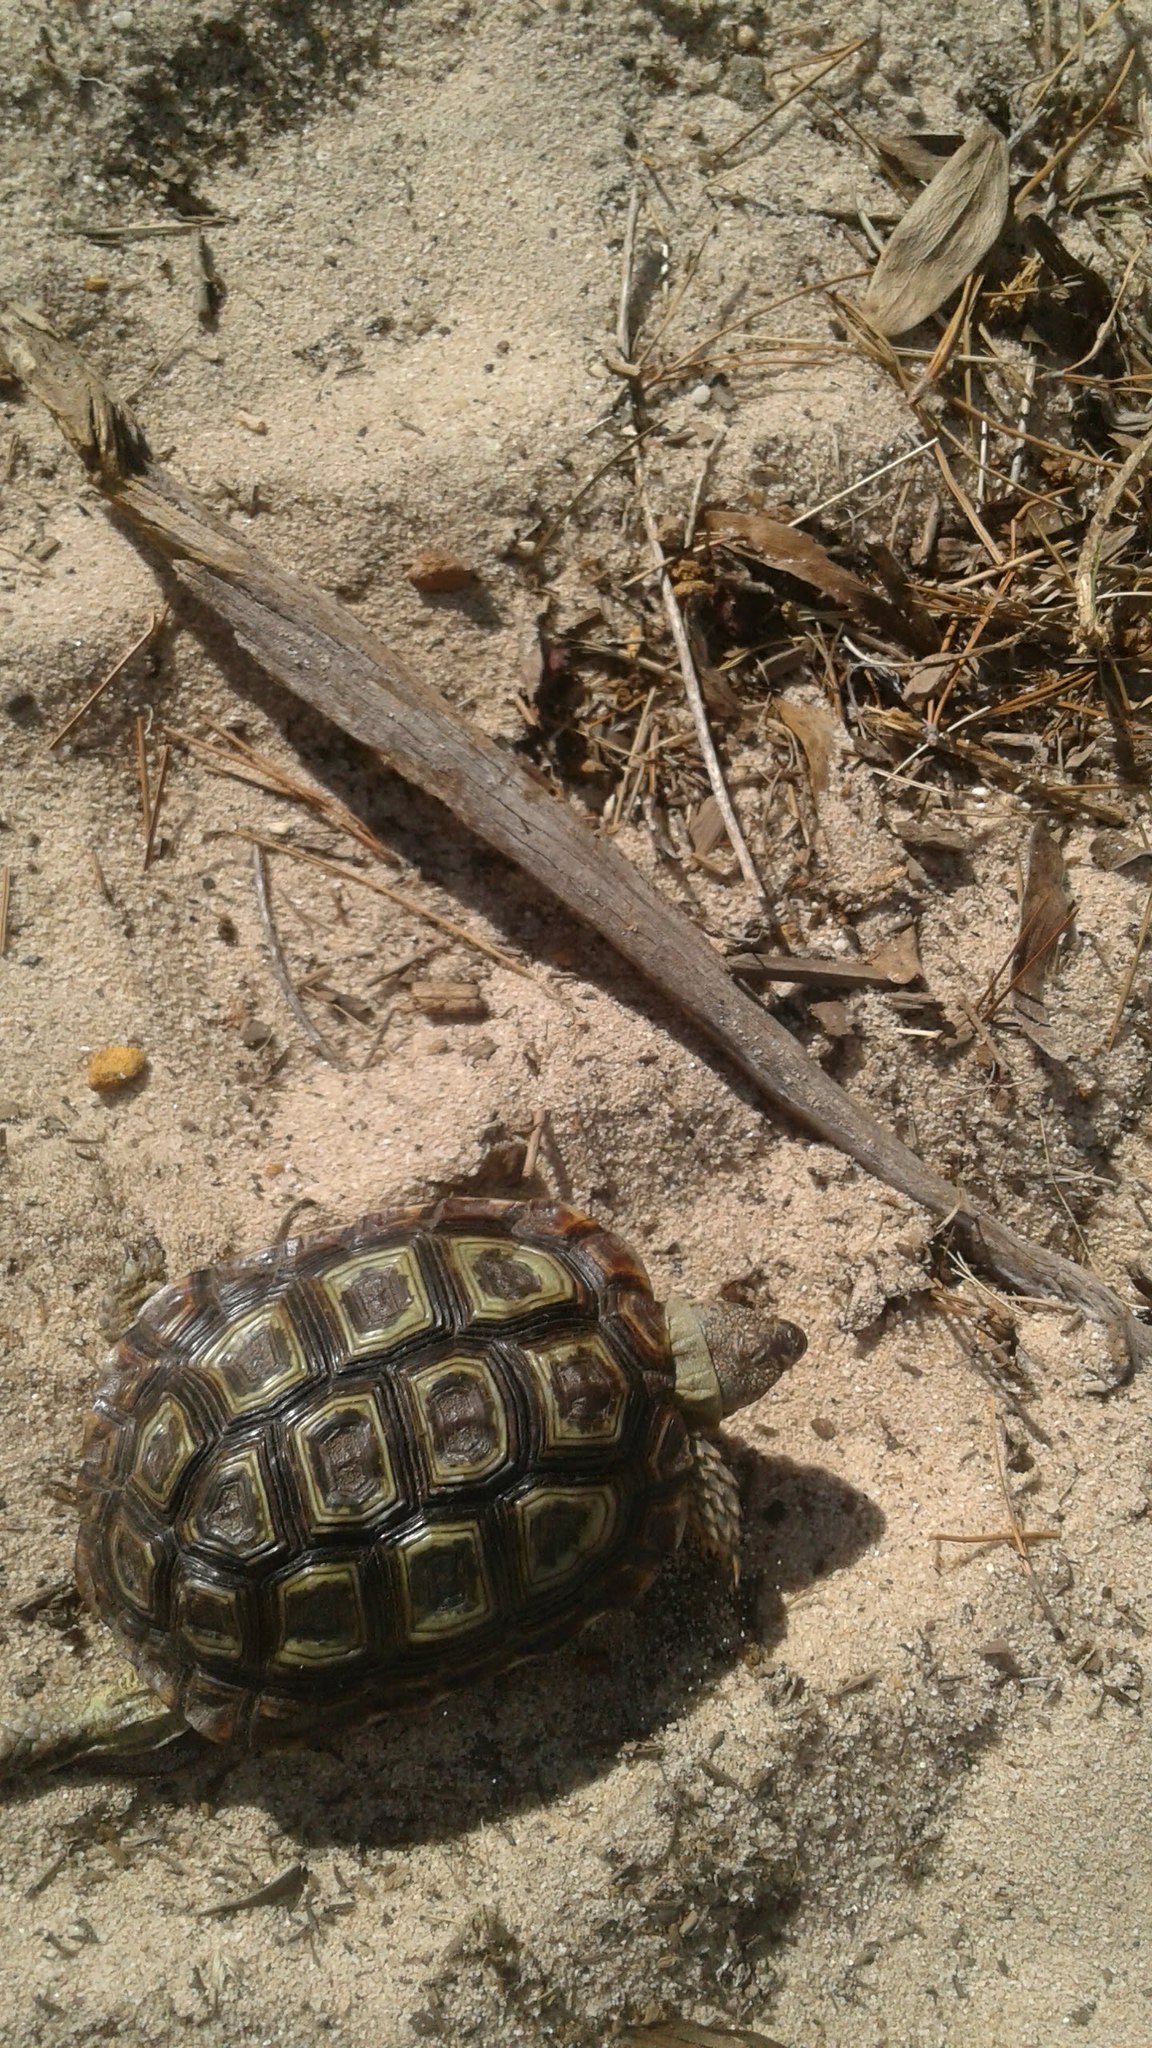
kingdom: Animalia
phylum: Chordata
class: Testudines
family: Testudinidae
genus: Homopus
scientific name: Homopus areolatus
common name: Parrot-beaked tortoise
